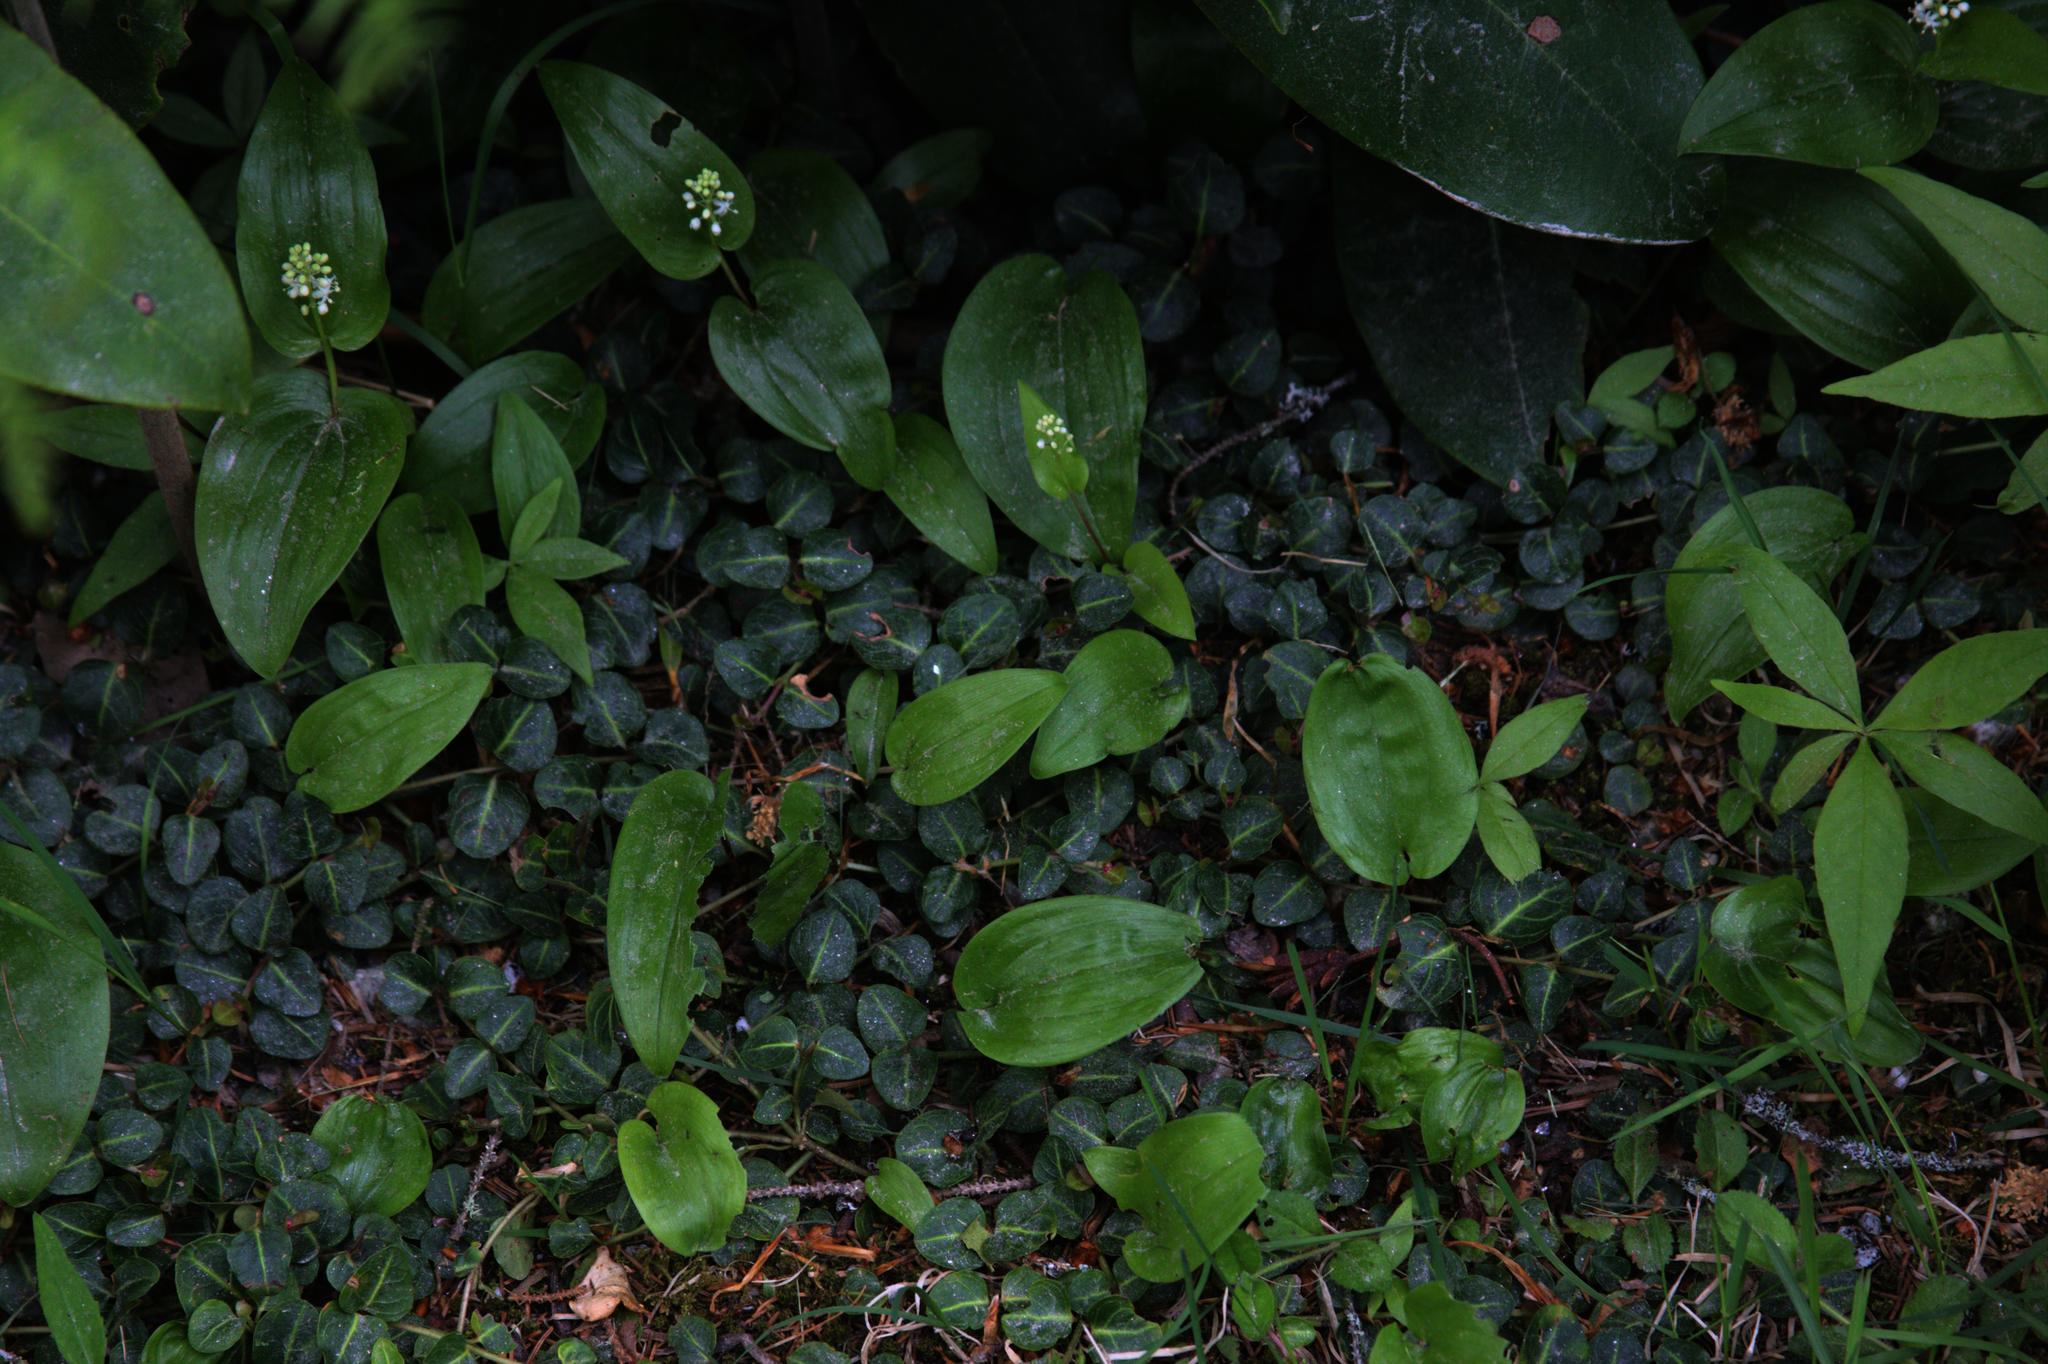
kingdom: Plantae
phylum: Tracheophyta
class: Magnoliopsida
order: Gentianales
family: Rubiaceae
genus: Mitchella
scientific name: Mitchella repens
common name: Partridge-berry
